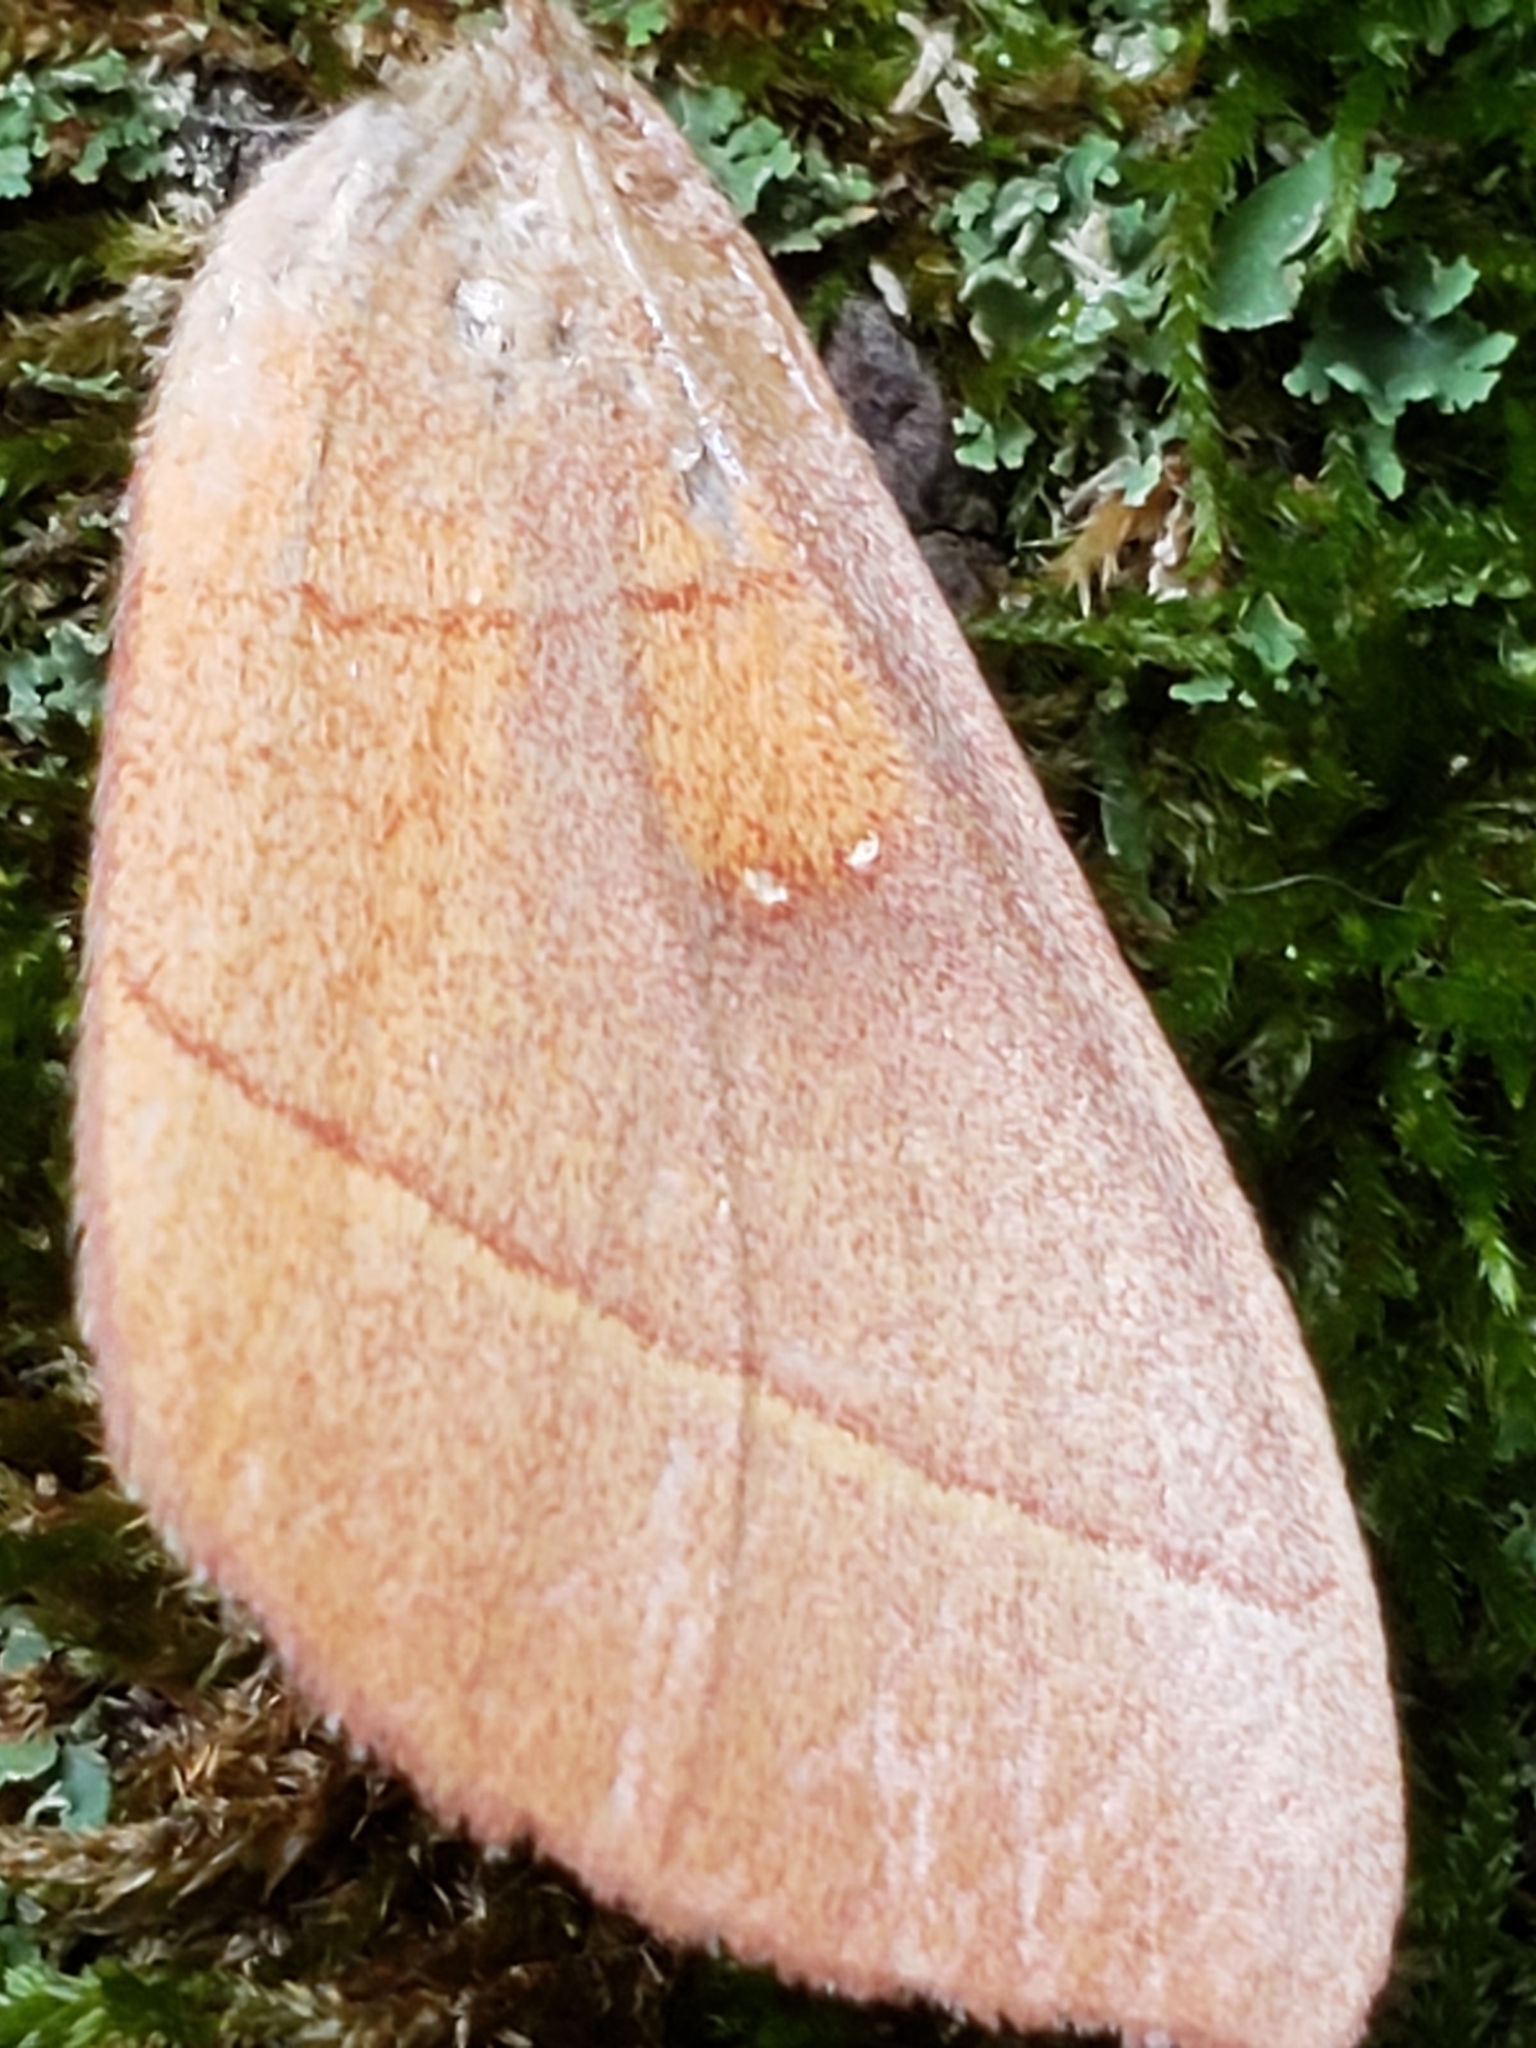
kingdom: Animalia
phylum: Arthropoda
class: Insecta
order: Lepidoptera
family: Notodontidae
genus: Nadata
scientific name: Nadata gibbosa
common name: White-dotted prominent
